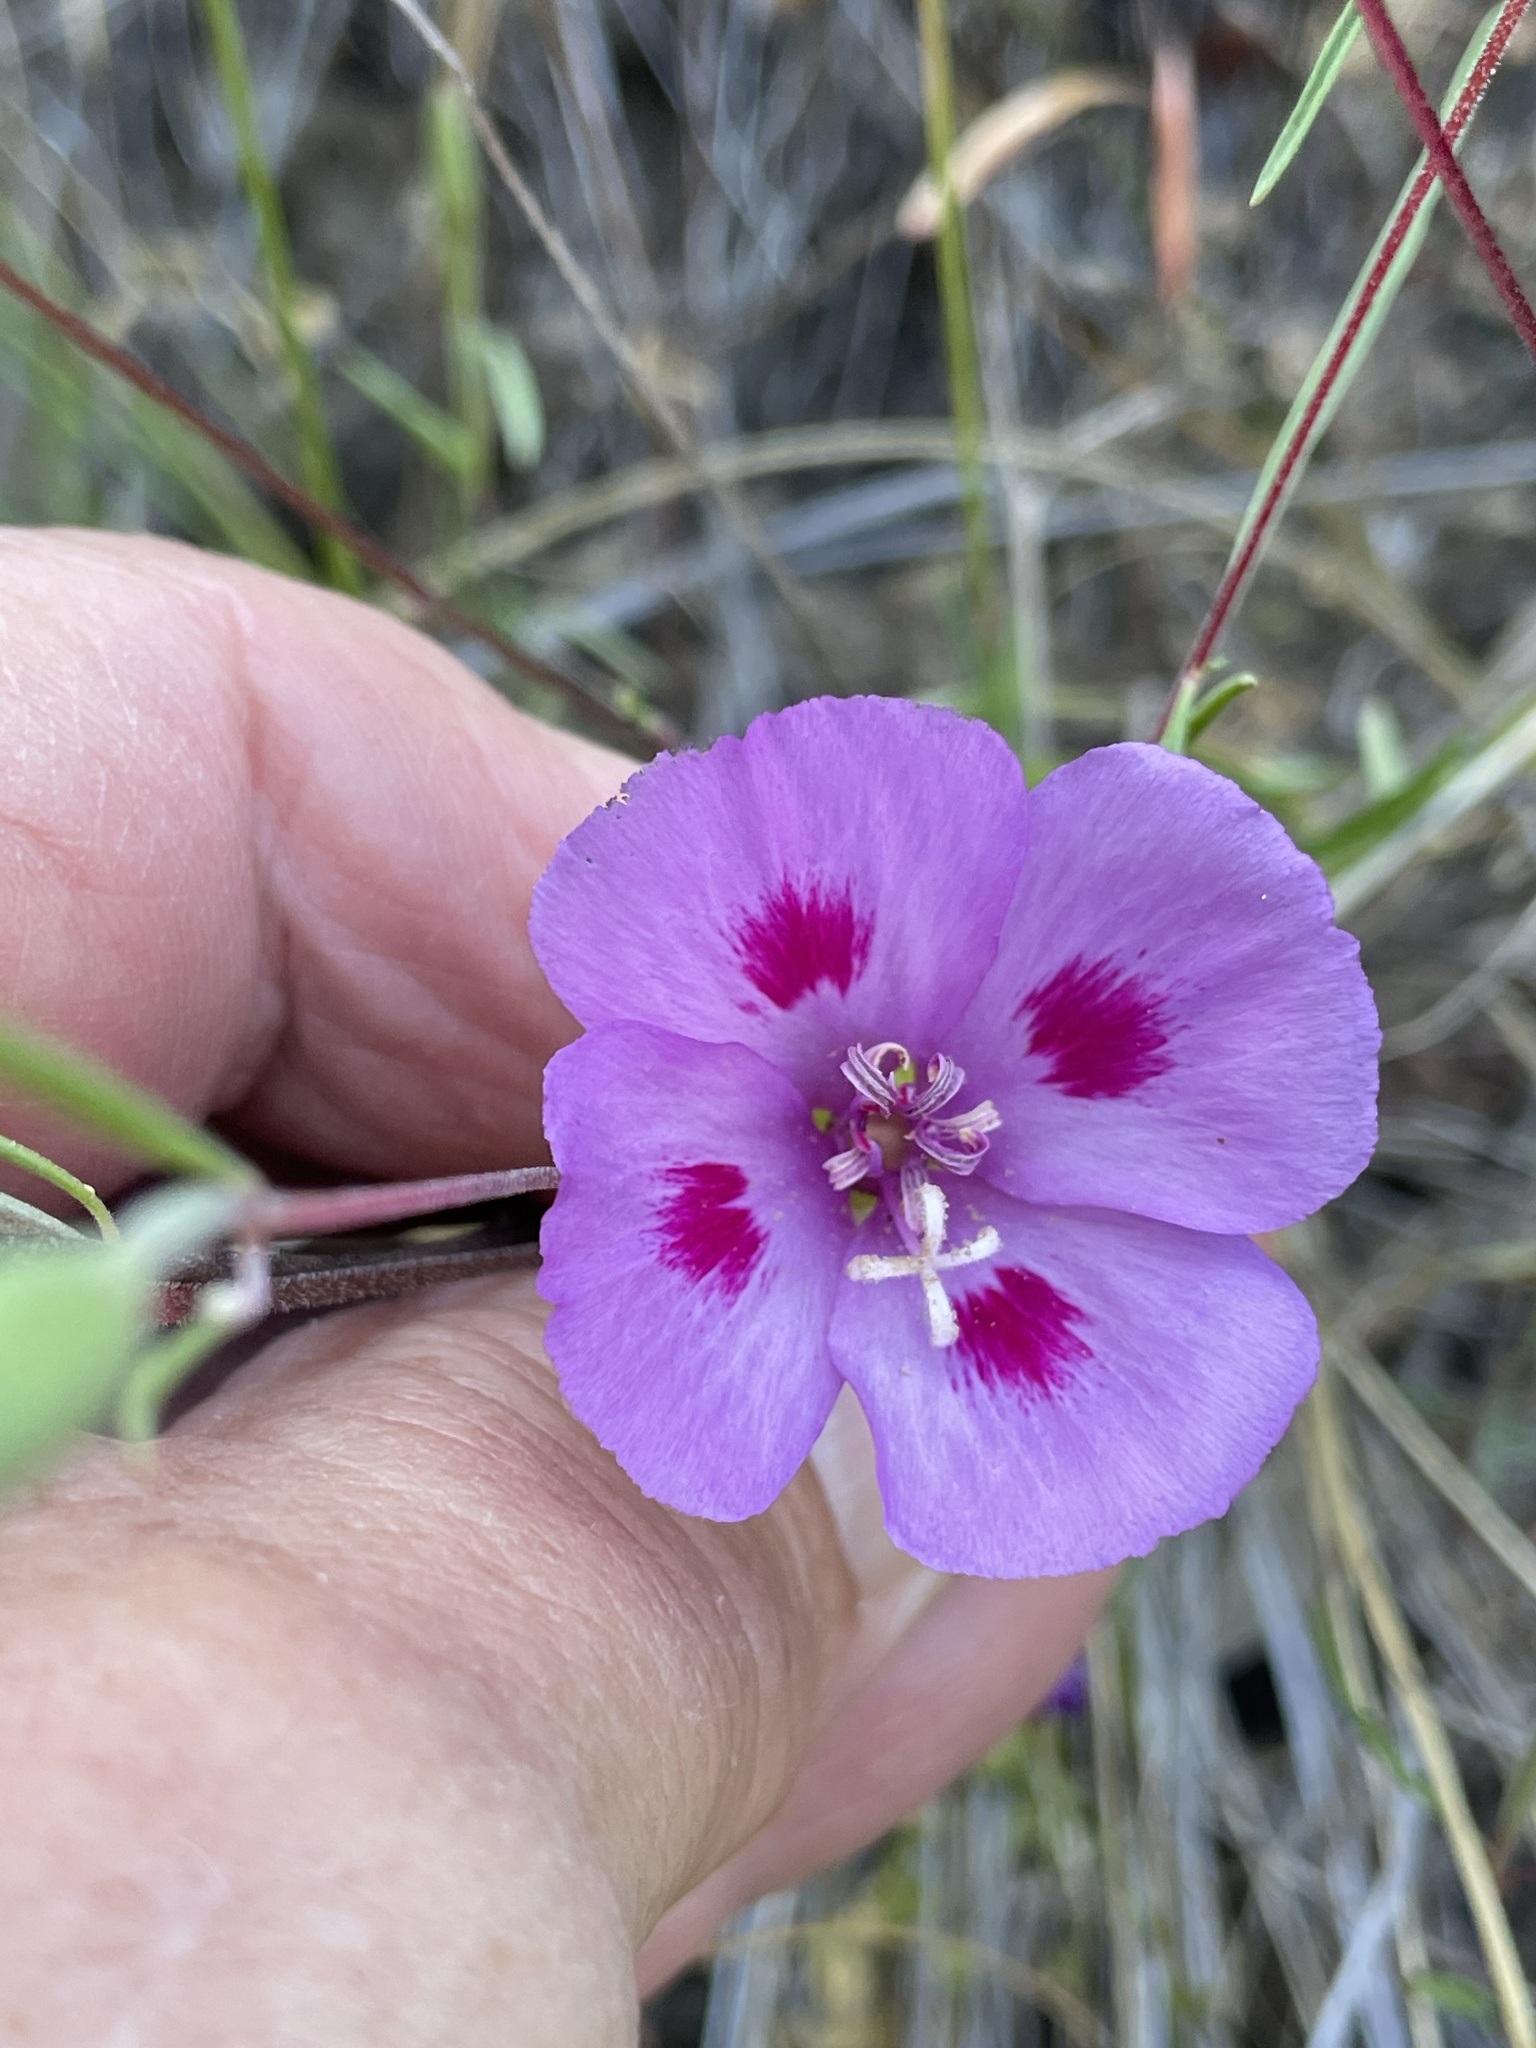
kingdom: Plantae
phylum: Tracheophyta
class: Magnoliopsida
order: Myrtales
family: Onagraceae
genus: Clarkia
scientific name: Clarkia amoena
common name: Godetia
